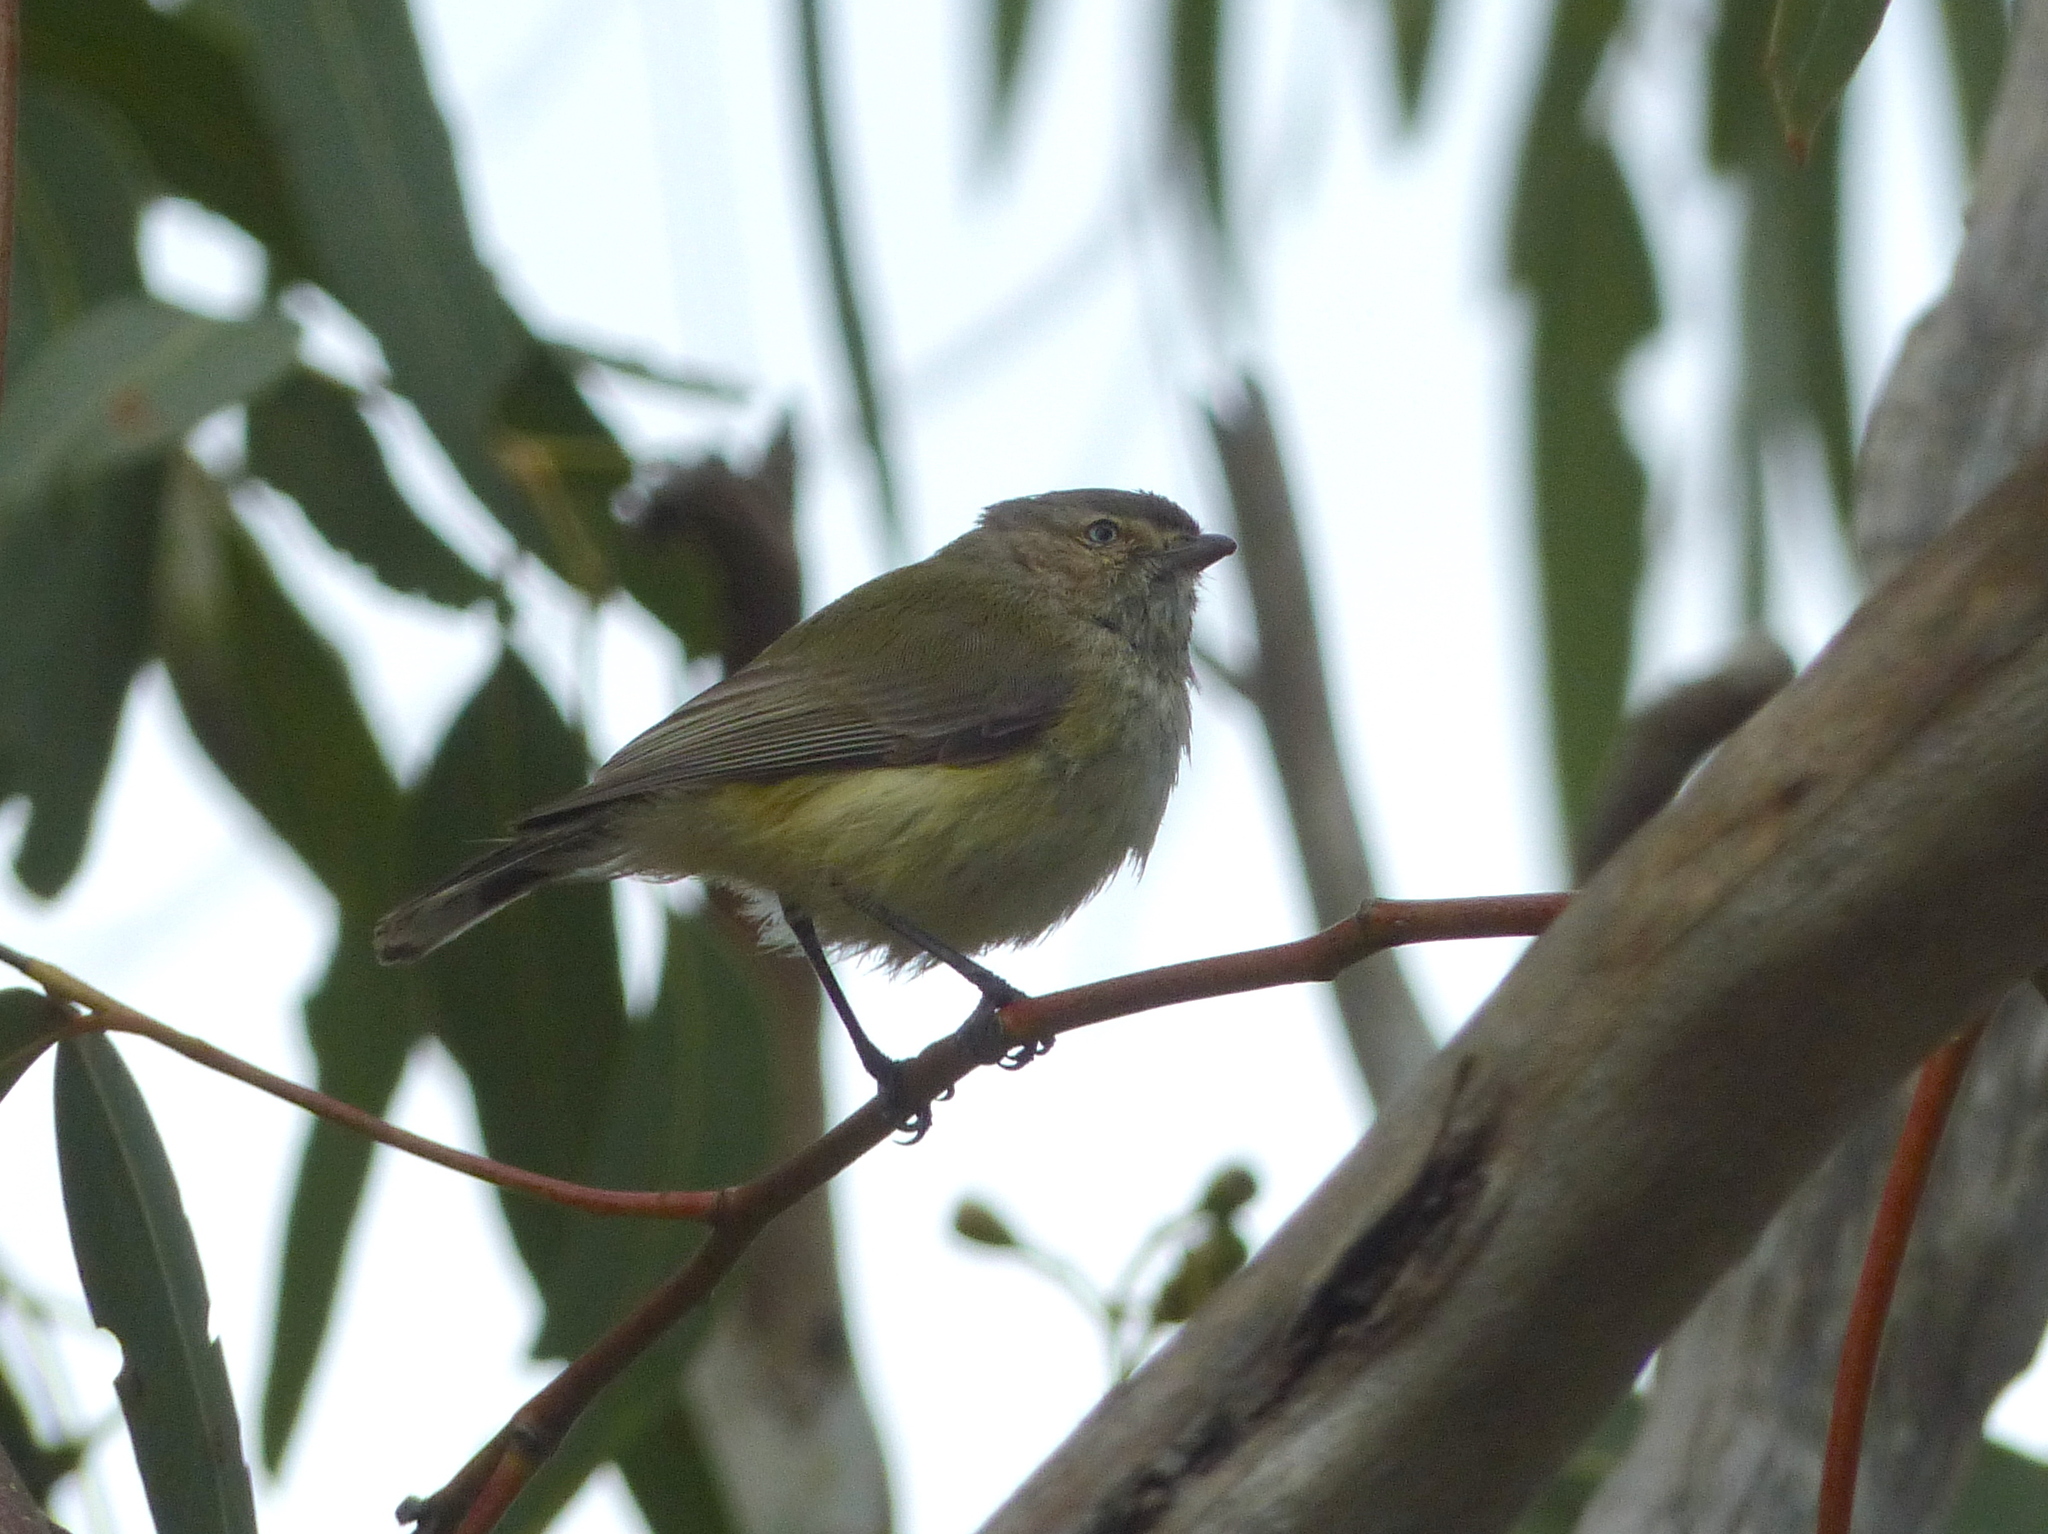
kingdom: Animalia
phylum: Chordata
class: Aves
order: Passeriformes
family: Acanthizidae
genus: Smicrornis
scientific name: Smicrornis brevirostris
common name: Weebill
